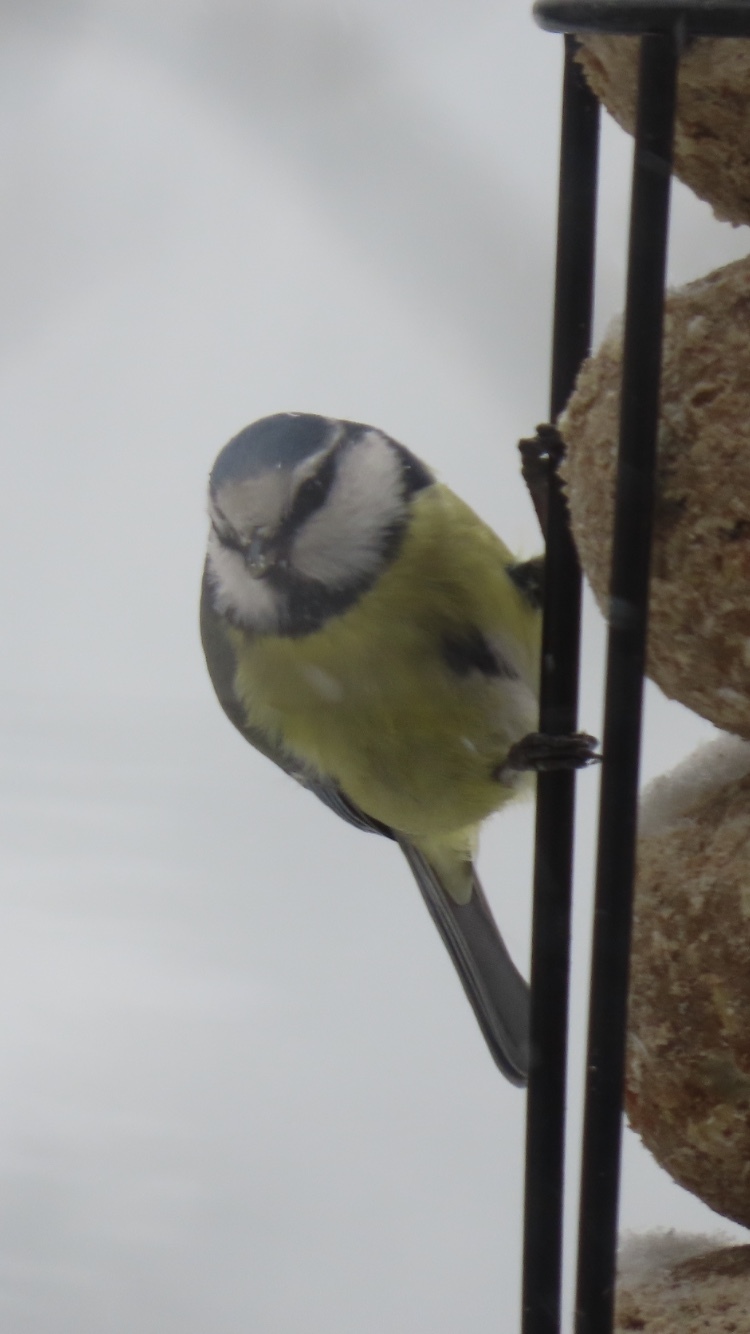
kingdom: Animalia
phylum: Chordata
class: Aves
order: Passeriformes
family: Paridae
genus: Cyanistes
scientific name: Cyanistes caeruleus
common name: Eurasian blue tit
